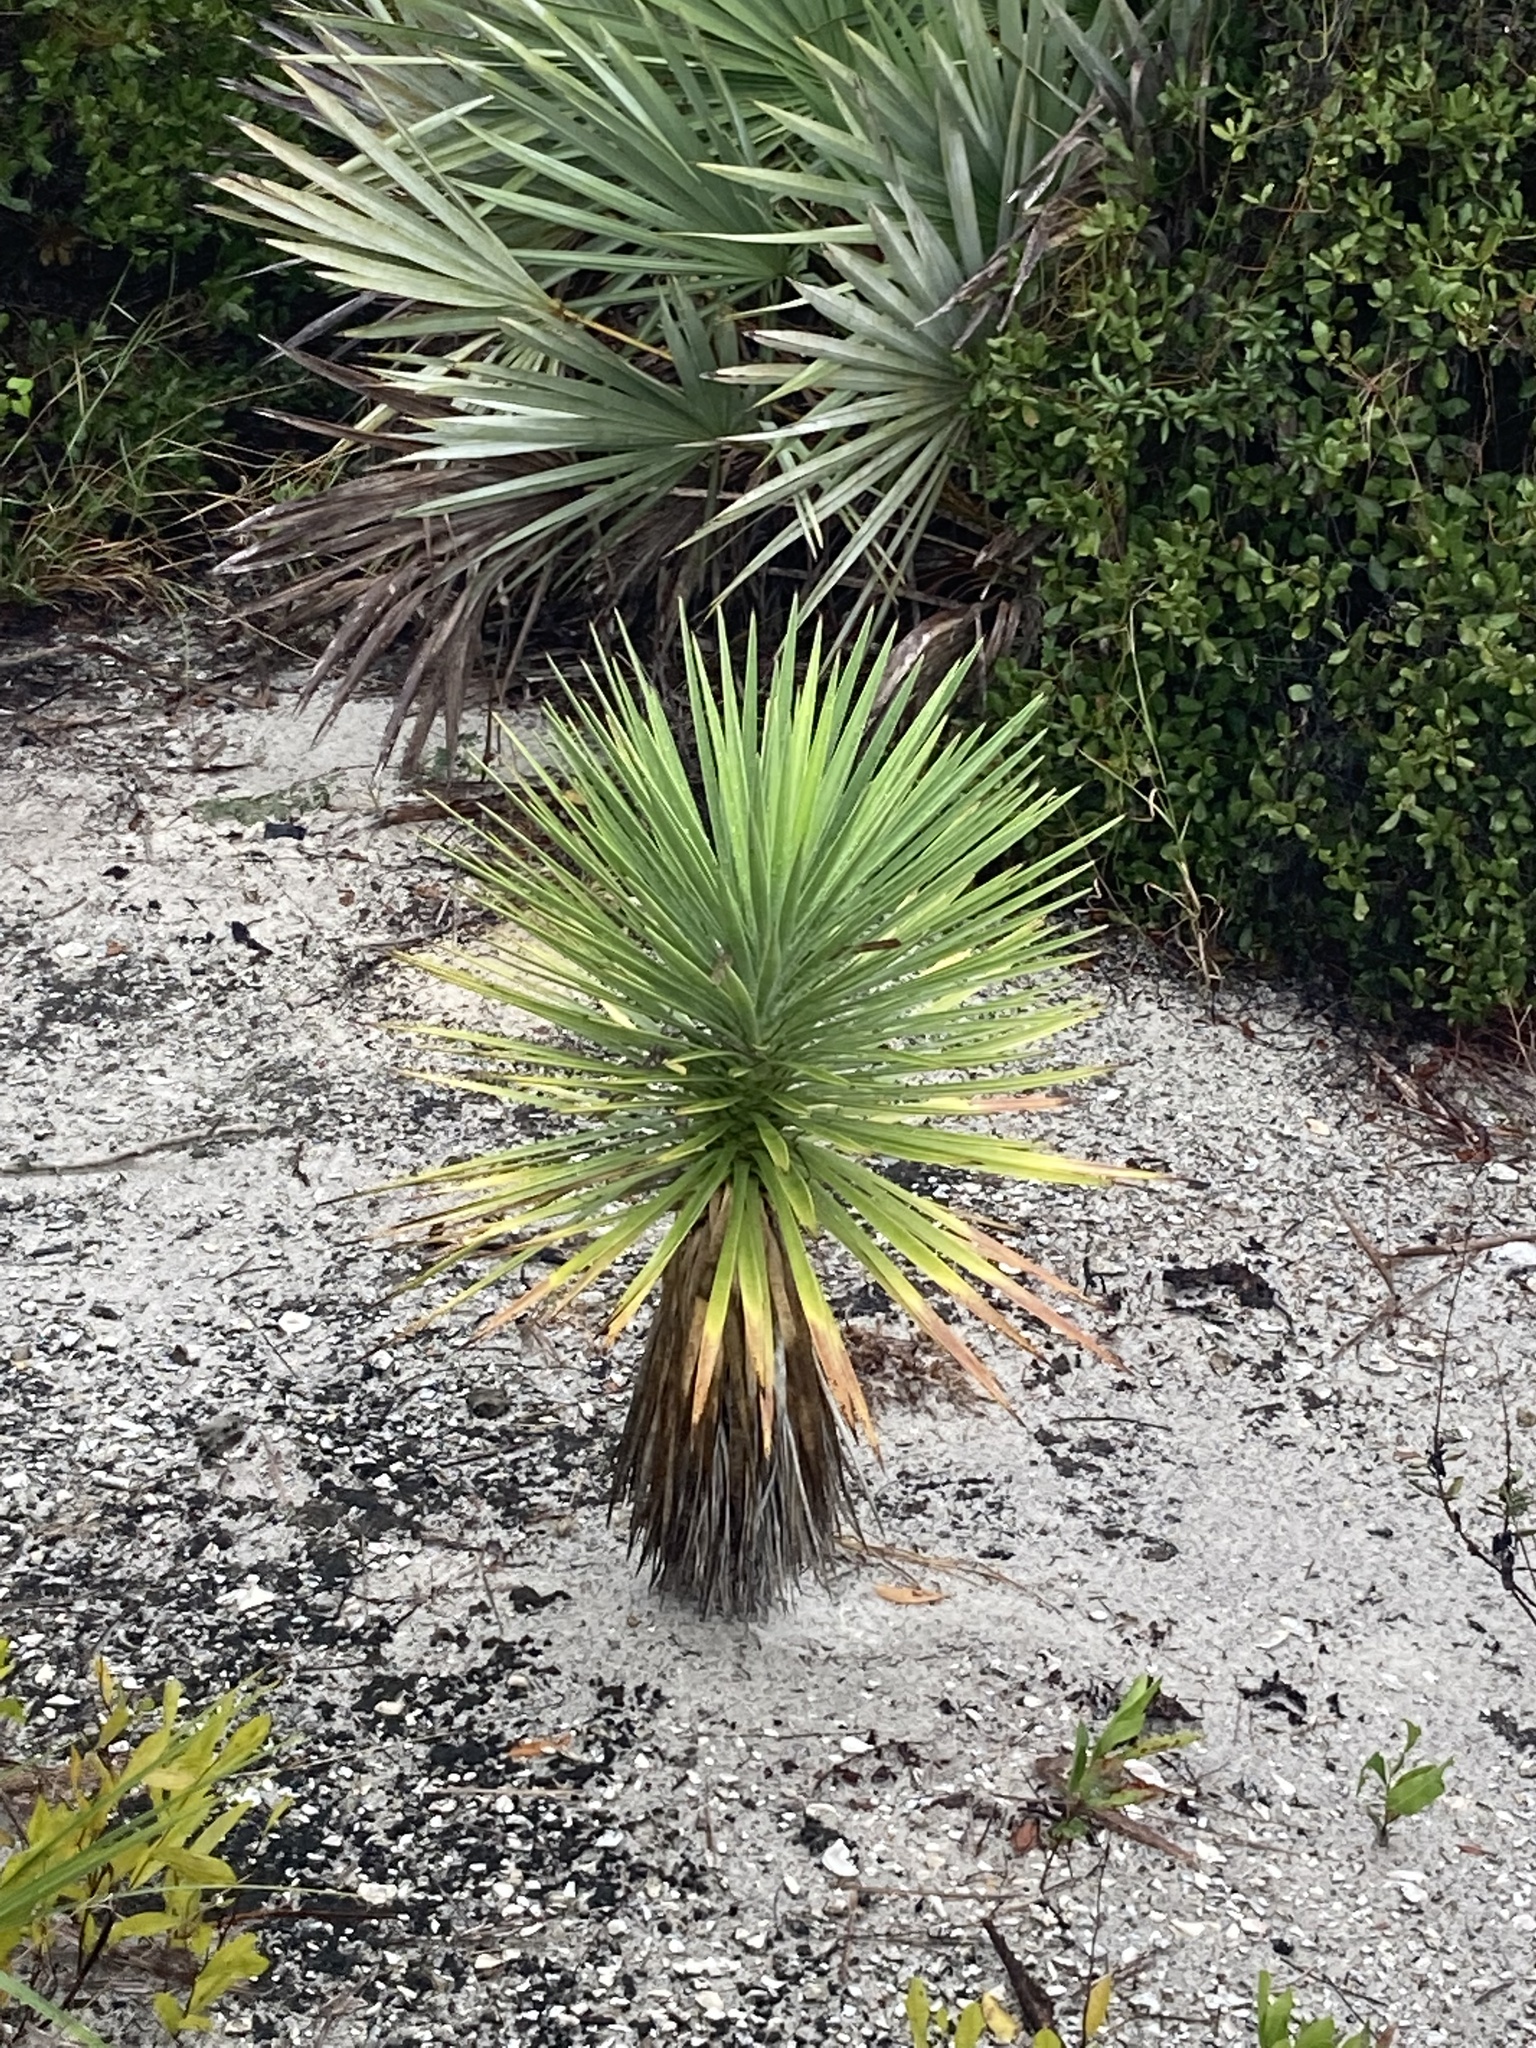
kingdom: Plantae
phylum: Tracheophyta
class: Liliopsida
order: Asparagales
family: Asparagaceae
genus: Yucca
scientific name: Yucca aloifolia
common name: Aloe yucca
